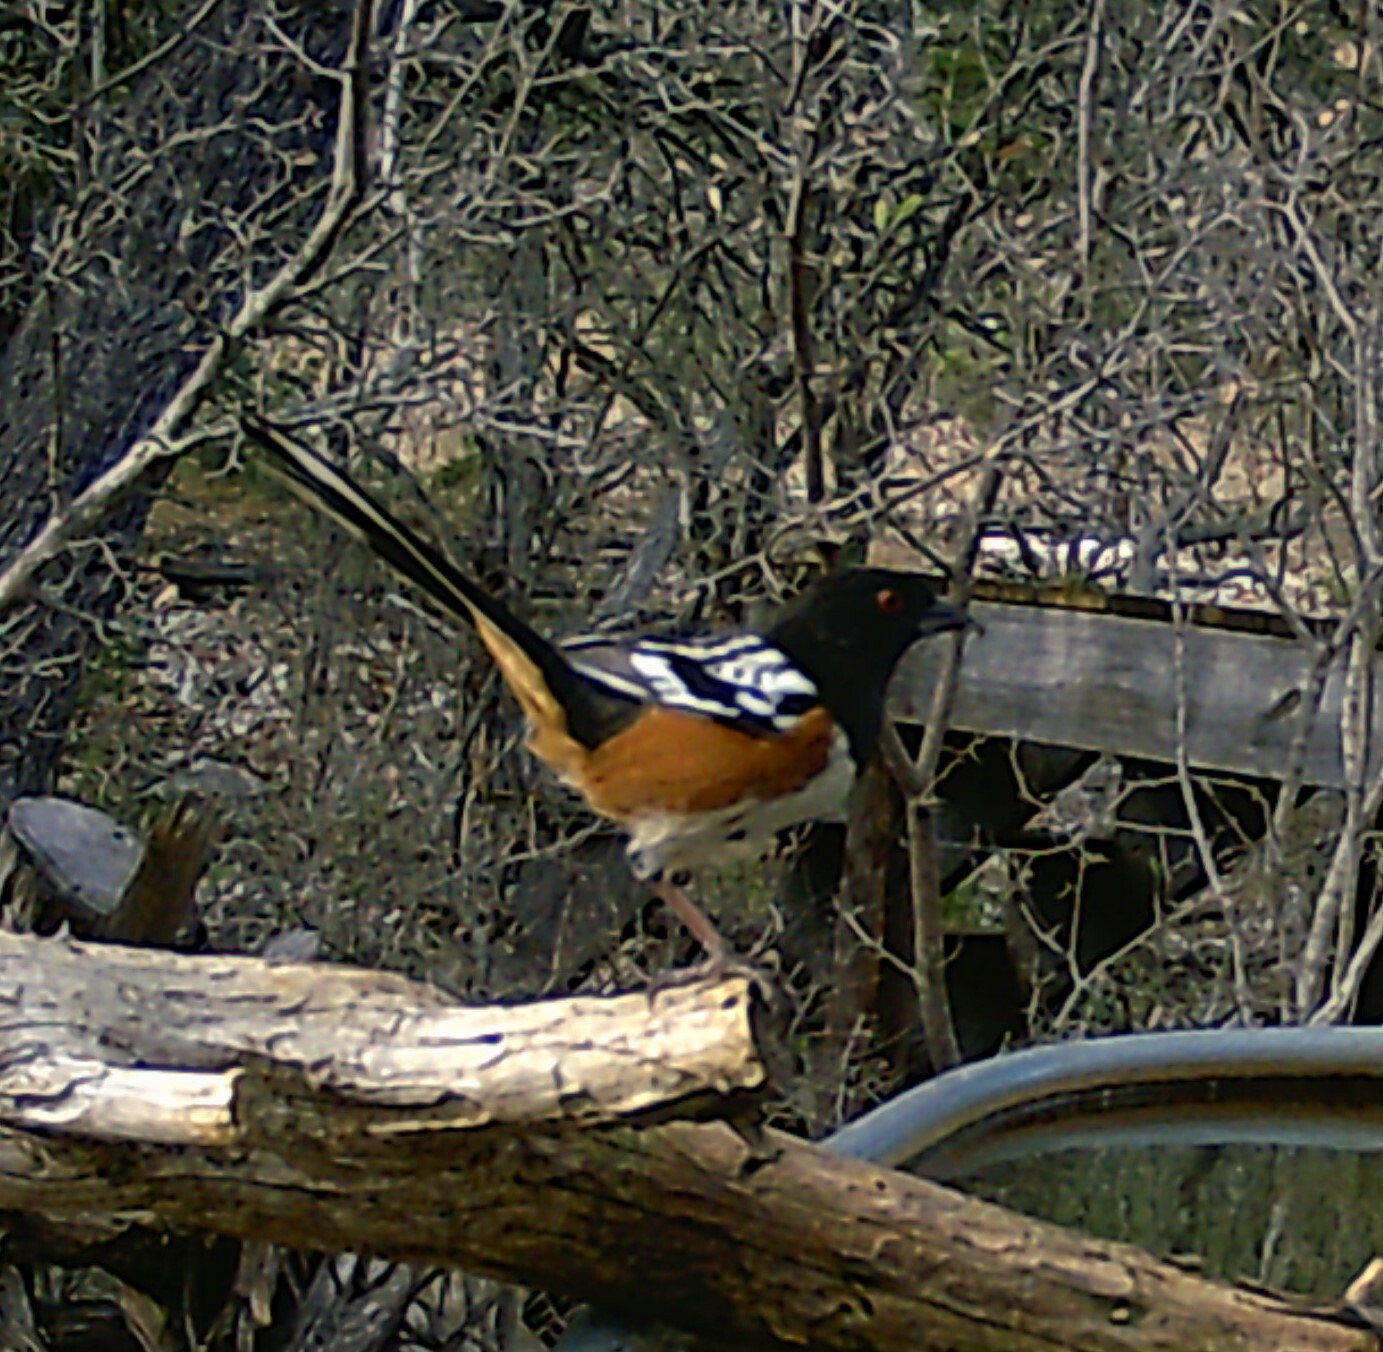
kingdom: Animalia
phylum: Chordata
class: Aves
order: Passeriformes
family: Passerellidae
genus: Pipilo
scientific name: Pipilo maculatus
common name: Spotted towhee
